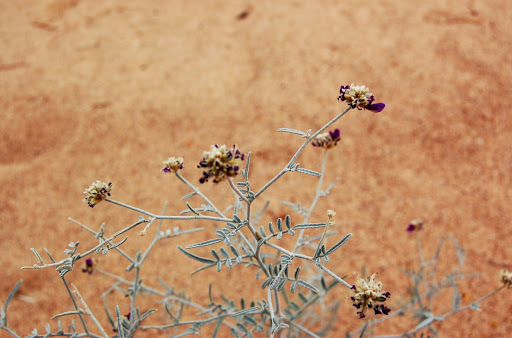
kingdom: Plantae
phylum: Tracheophyta
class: Magnoliopsida
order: Fabales
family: Fabaceae
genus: Psorothamnus
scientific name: Psorothamnus emoryi
